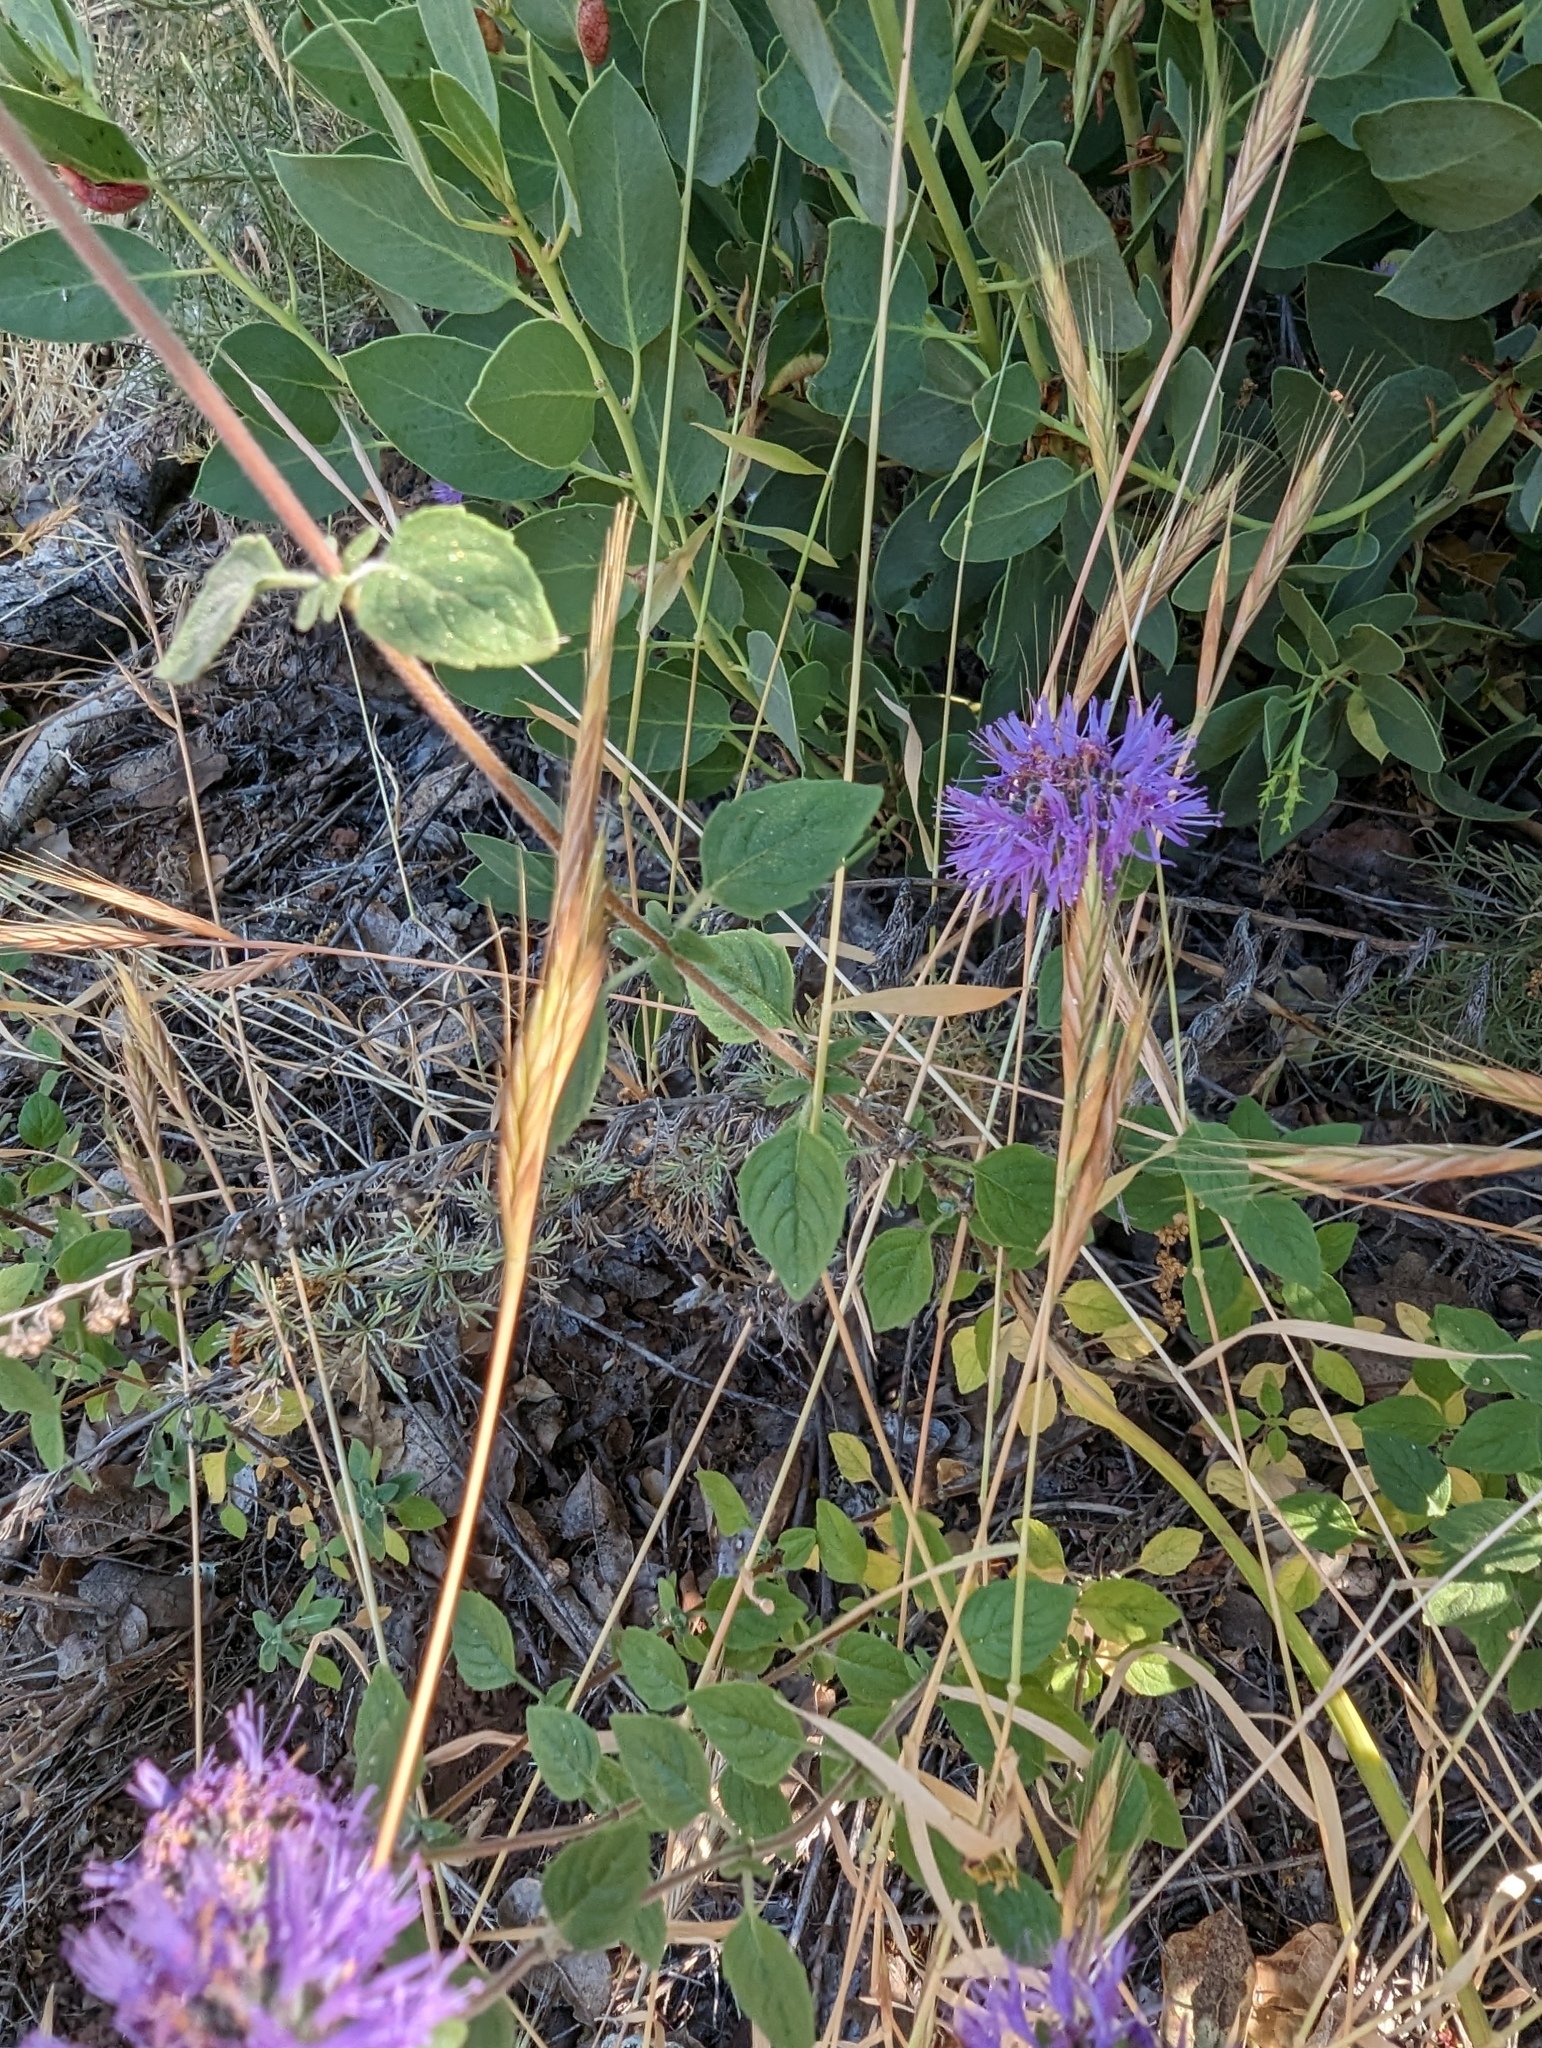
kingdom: Plantae
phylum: Tracheophyta
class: Magnoliopsida
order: Lamiales
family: Lamiaceae
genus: Monardella
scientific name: Monardella odoratissima
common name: Pacific monardella
